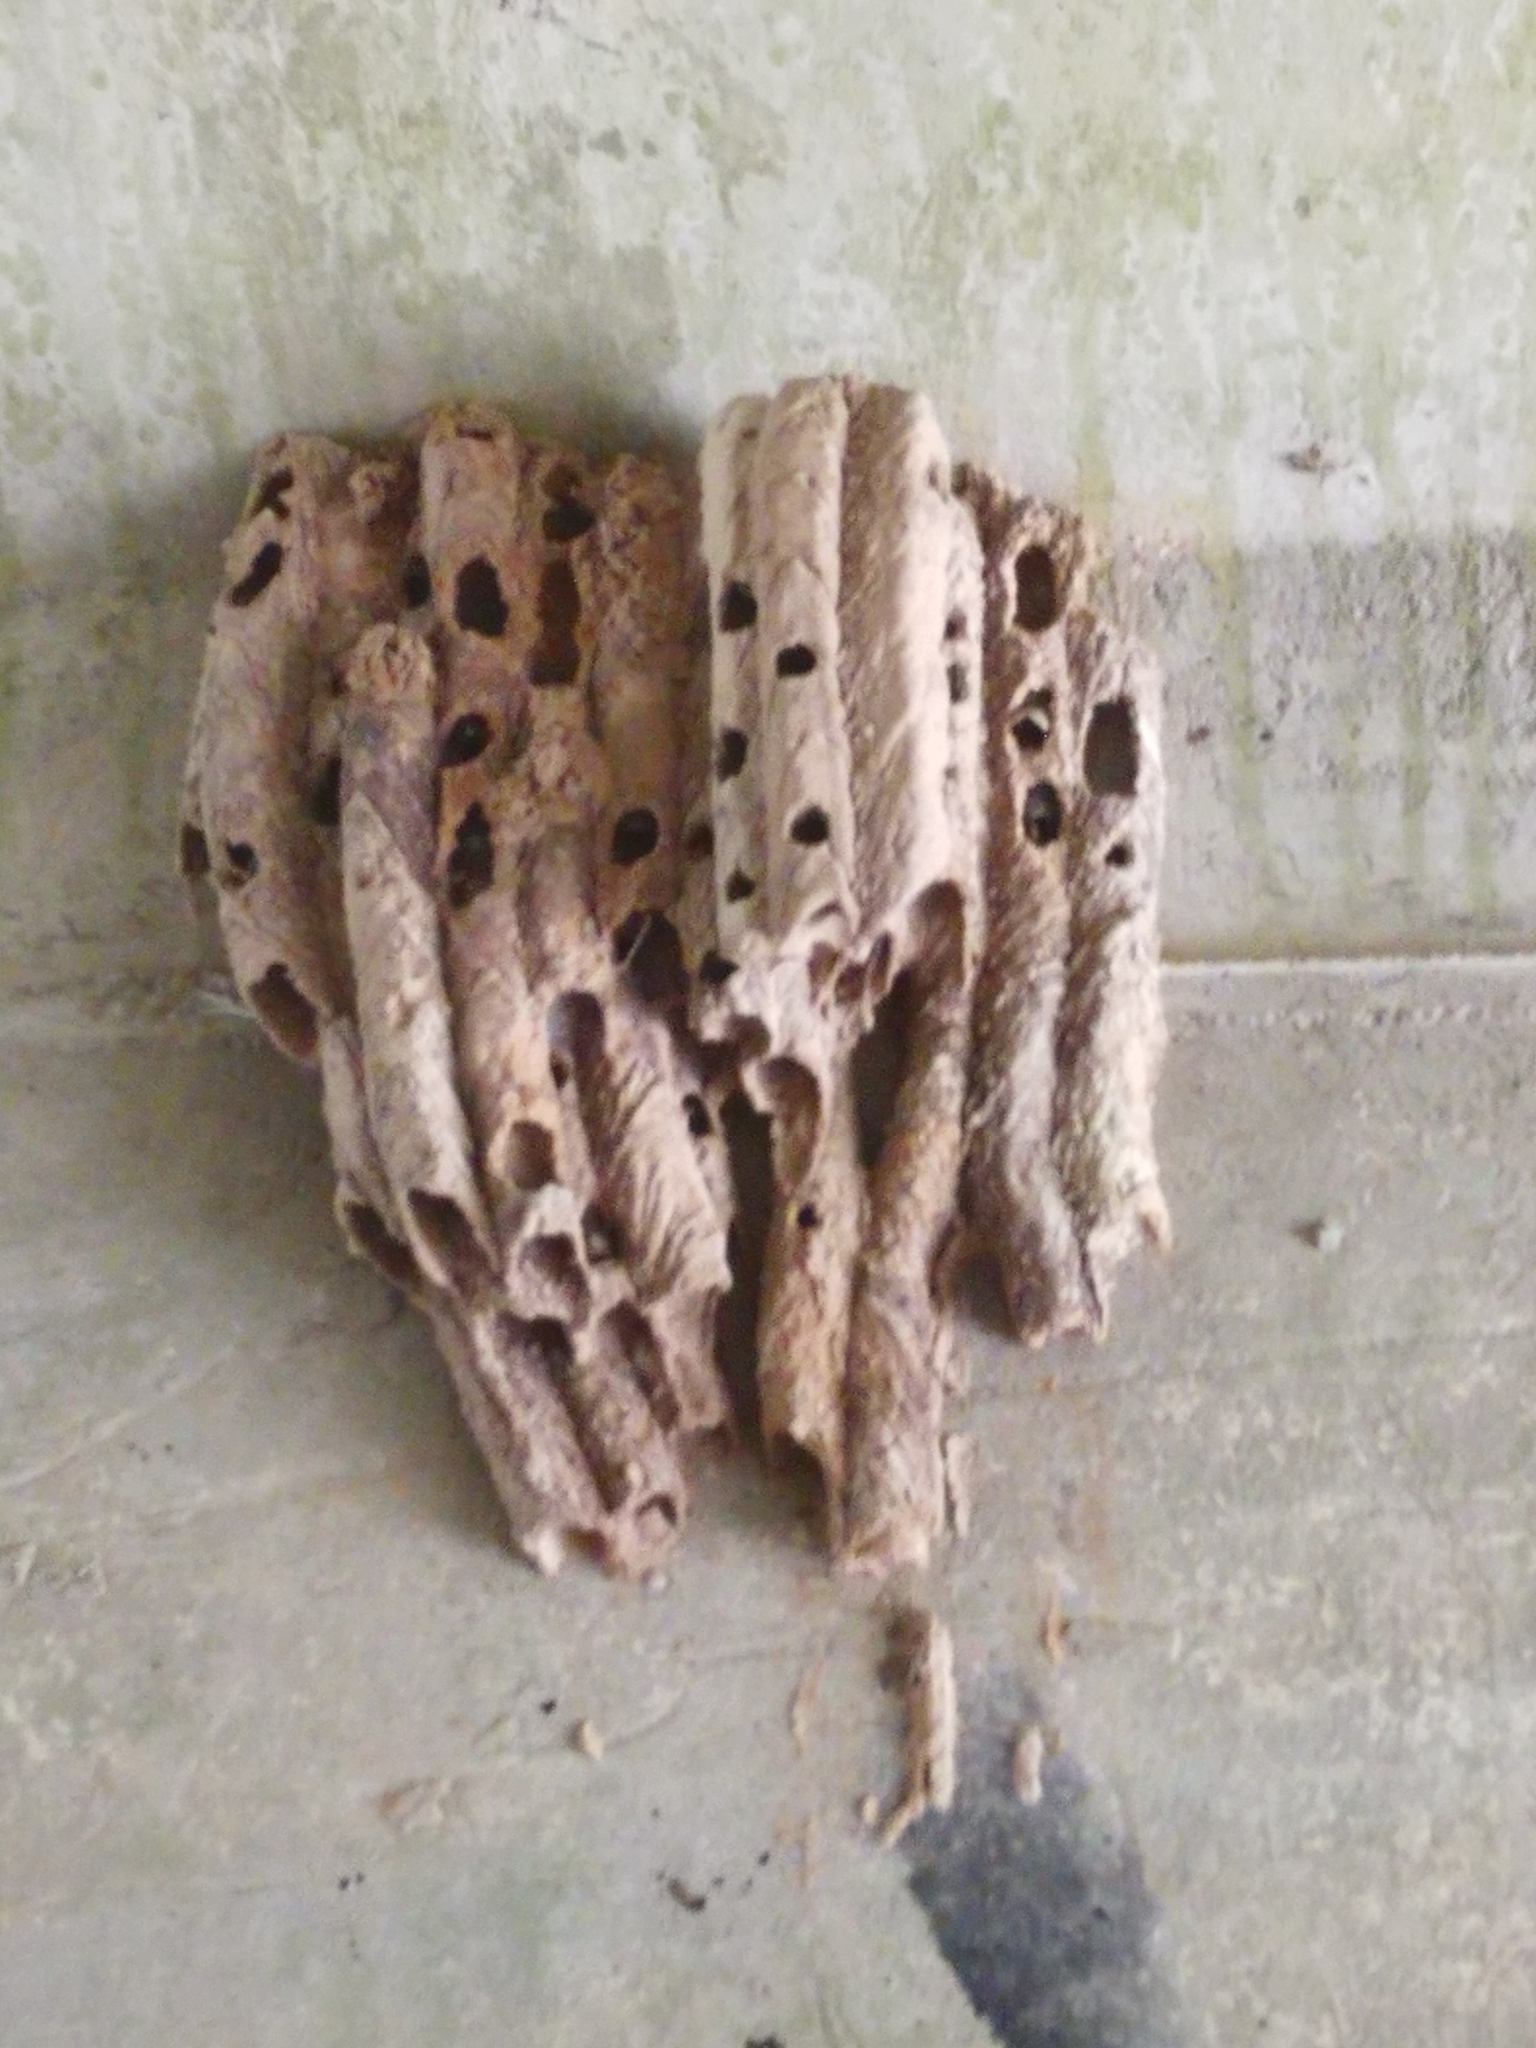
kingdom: Animalia
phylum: Arthropoda
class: Insecta
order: Hymenoptera
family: Crabronidae
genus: Trypoxylon
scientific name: Trypoxylon politum
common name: Organ-pipe mud-dauber wasp
